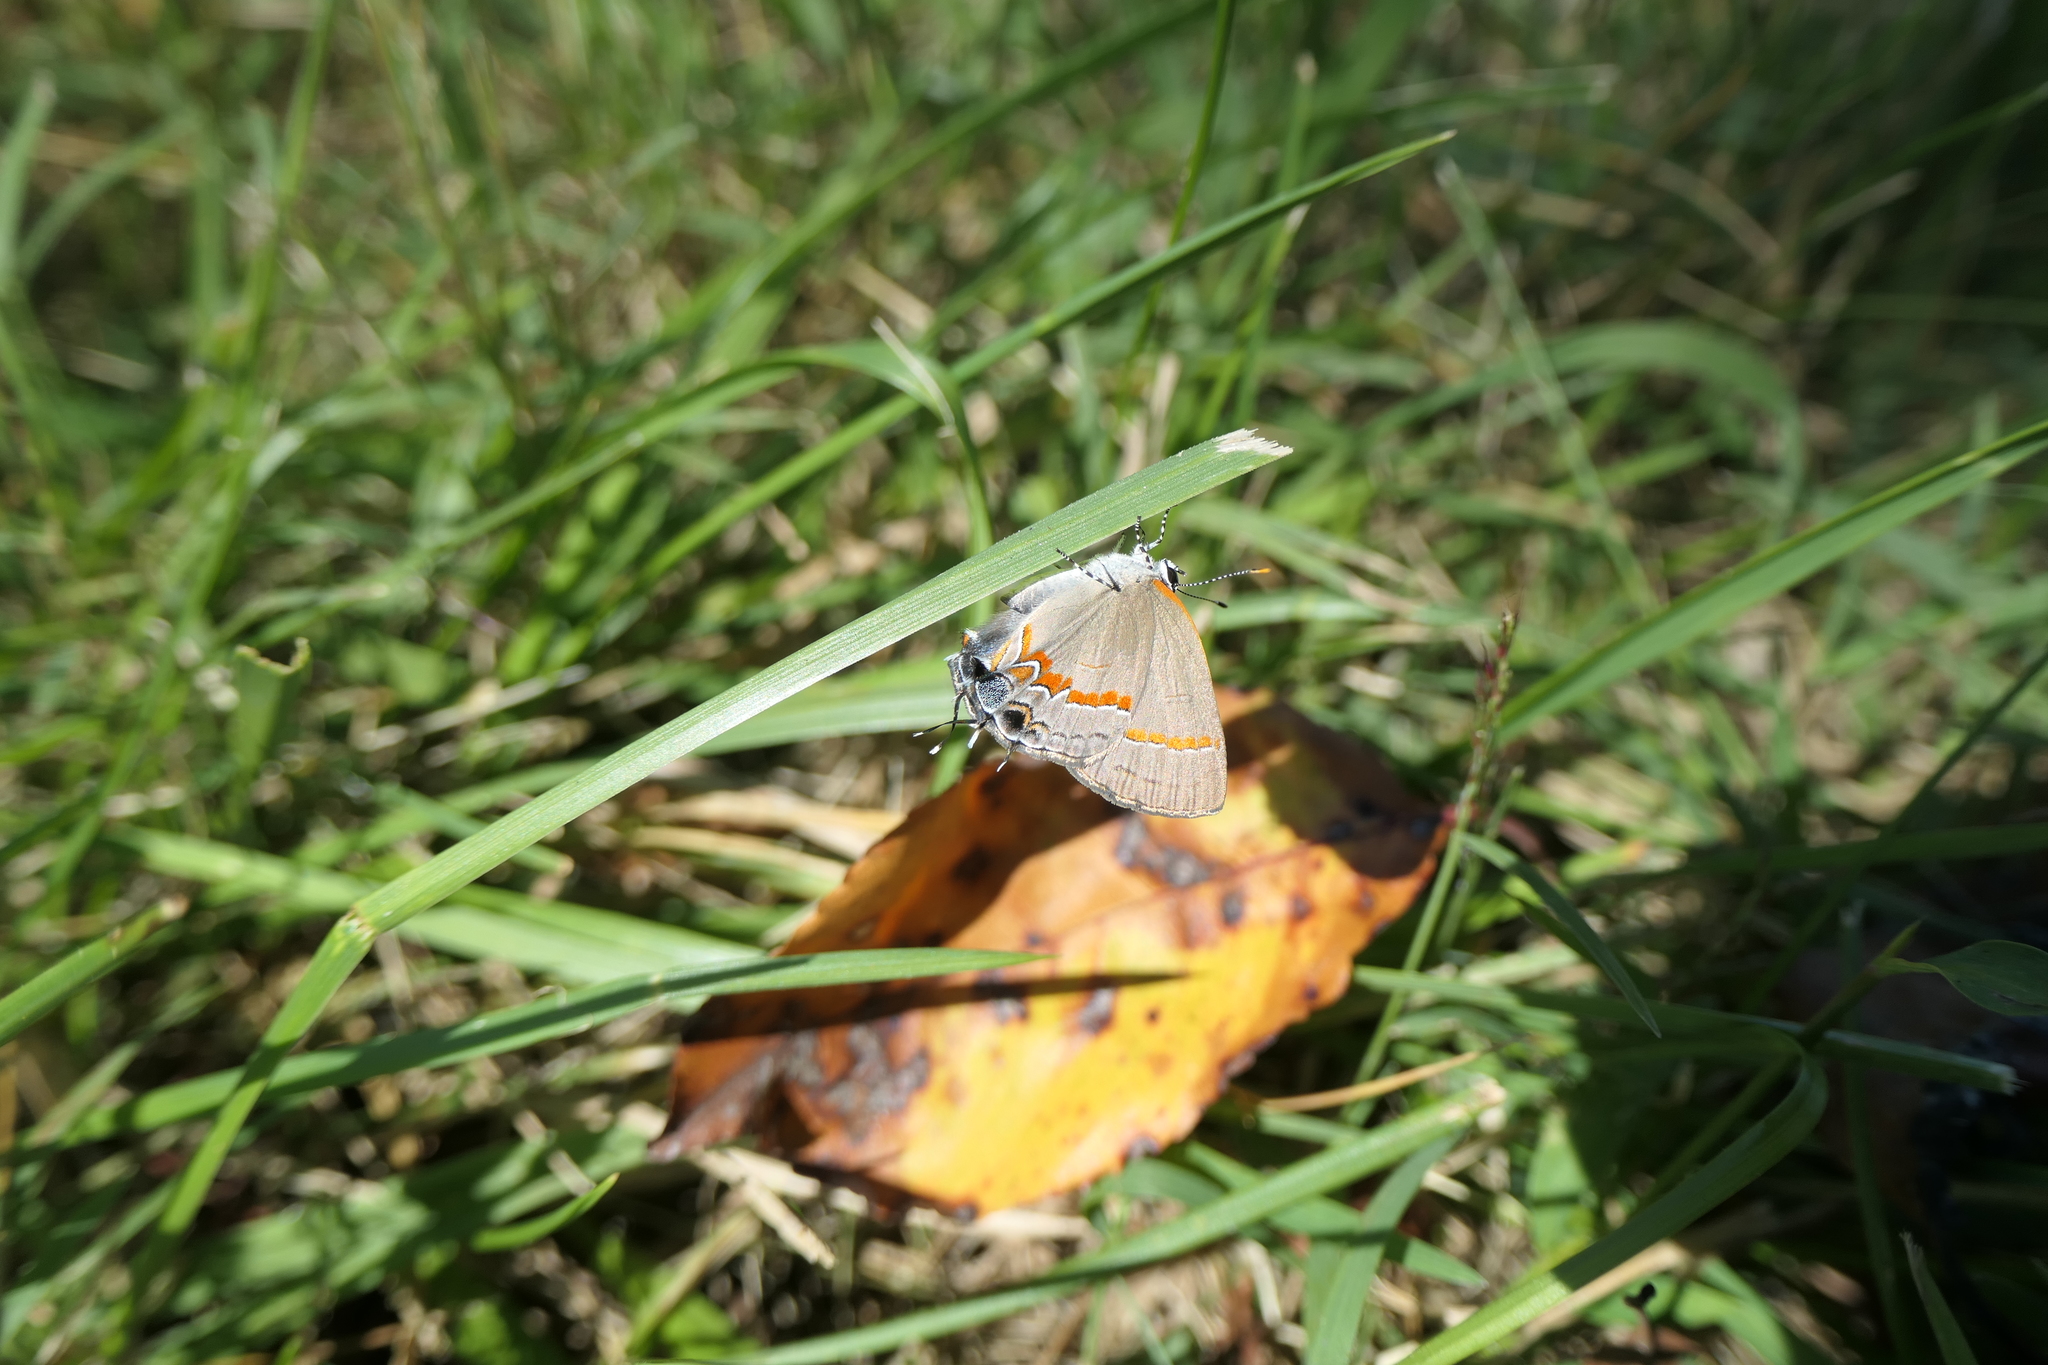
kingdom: Animalia
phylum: Arthropoda
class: Insecta
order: Lepidoptera
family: Lycaenidae
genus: Calycopis
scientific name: Calycopis cecrops
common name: Red-banded hairstreak
